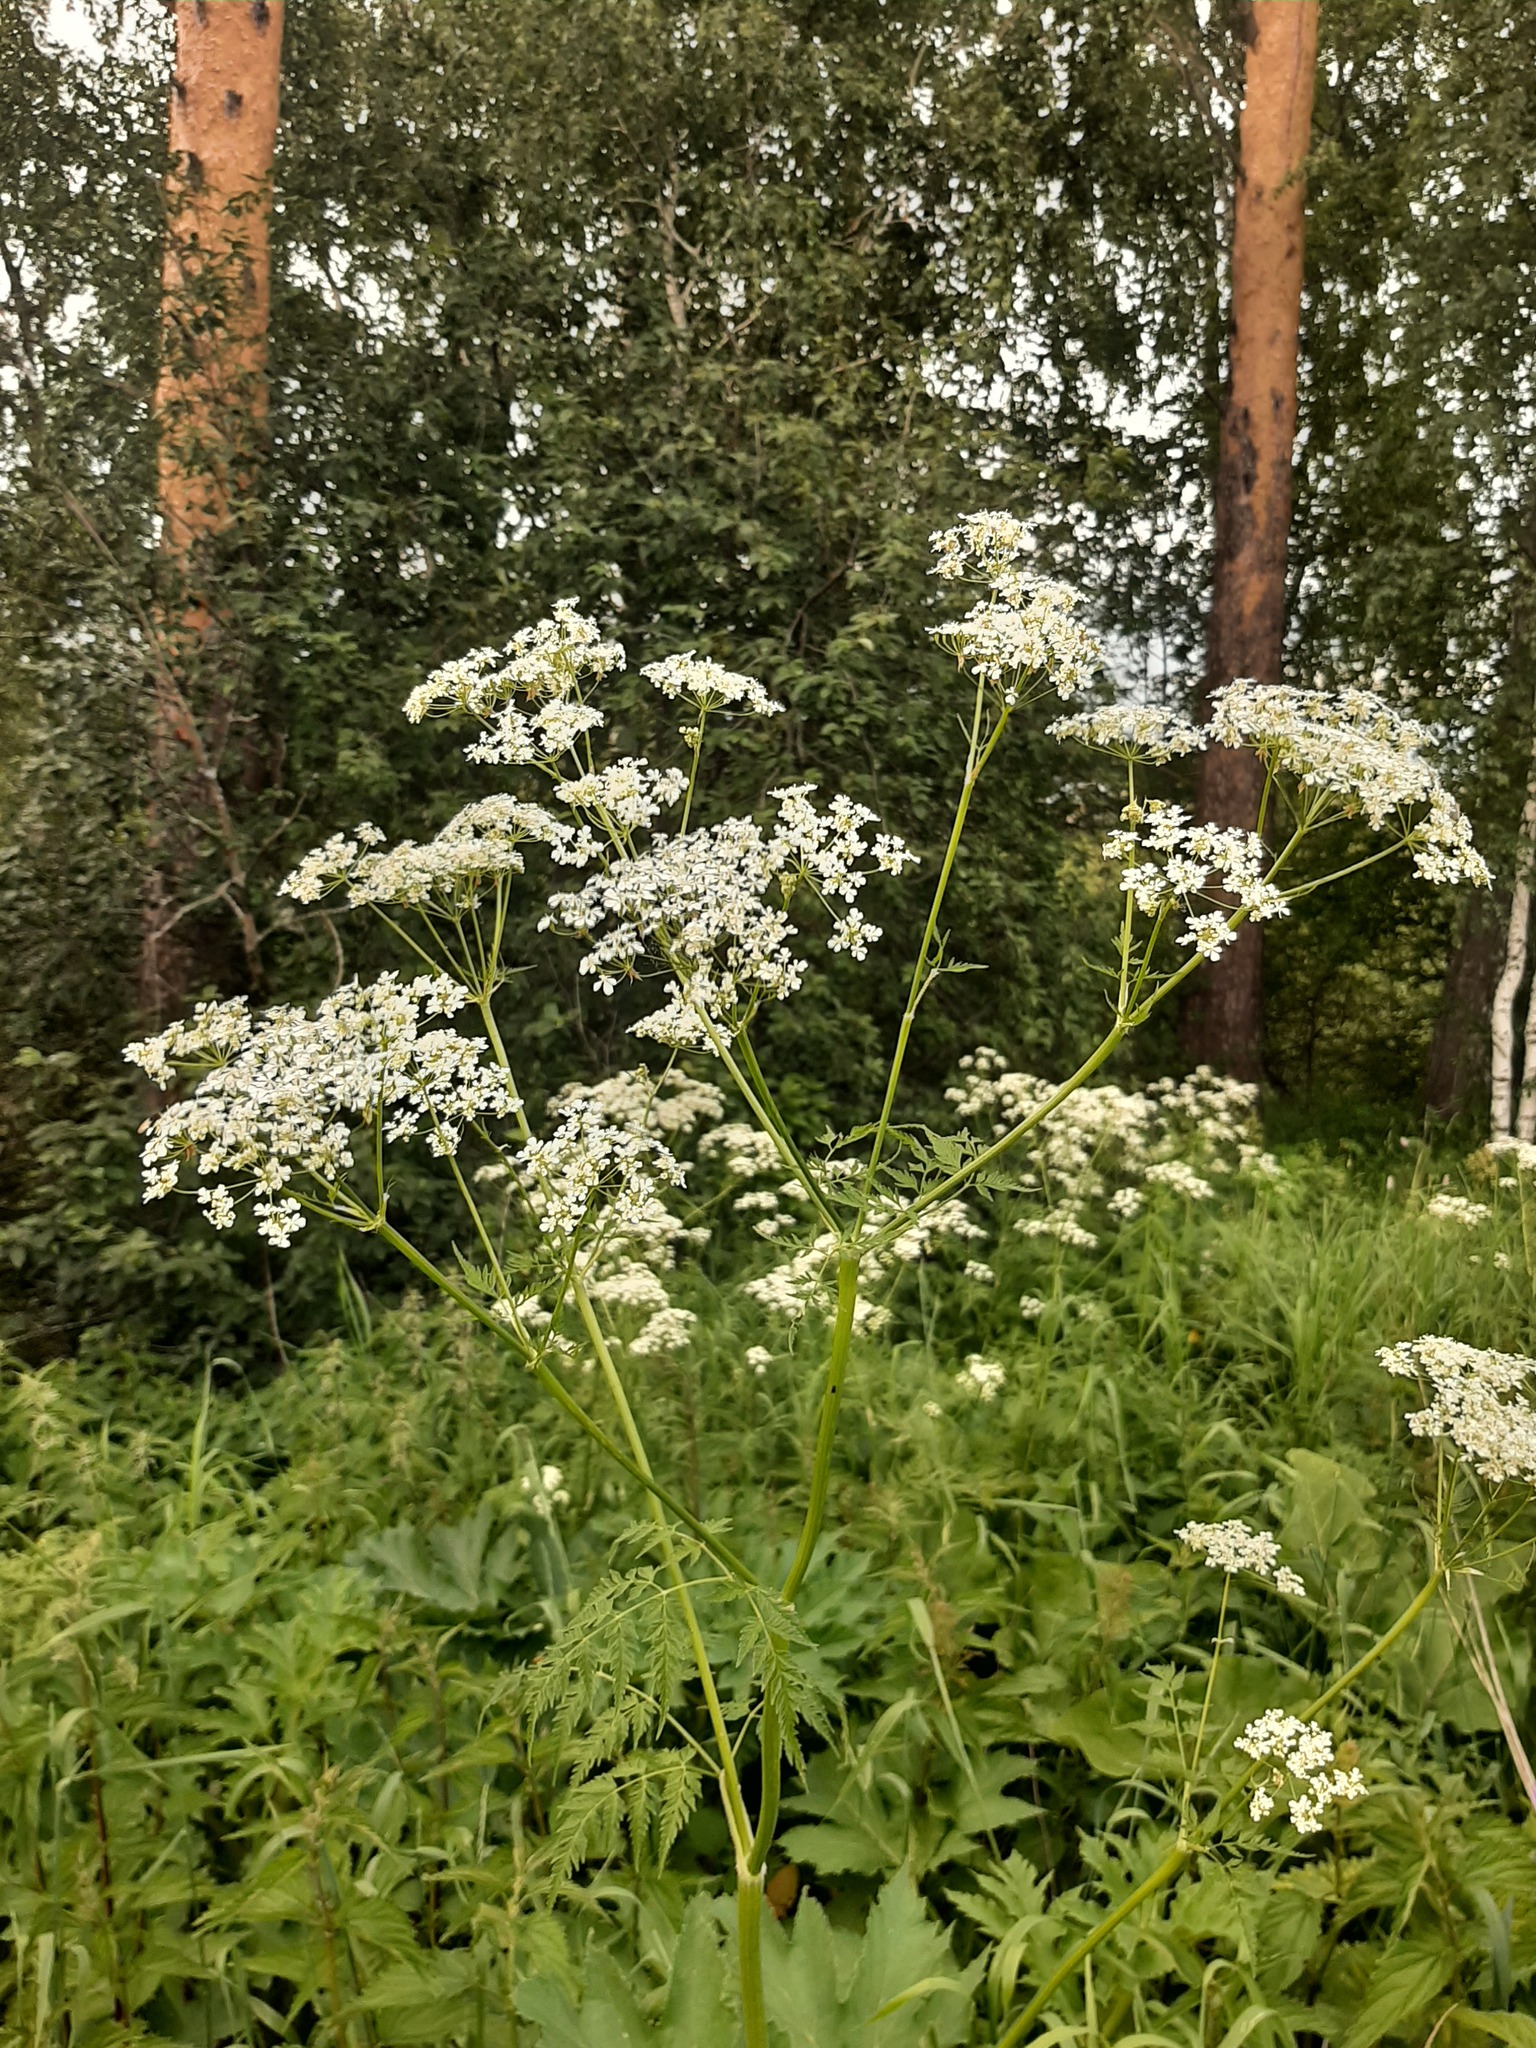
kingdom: Plantae
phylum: Tracheophyta
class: Magnoliopsida
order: Apiales
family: Apiaceae
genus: Anthriscus
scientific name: Anthriscus sylvestris
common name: Cow parsley
